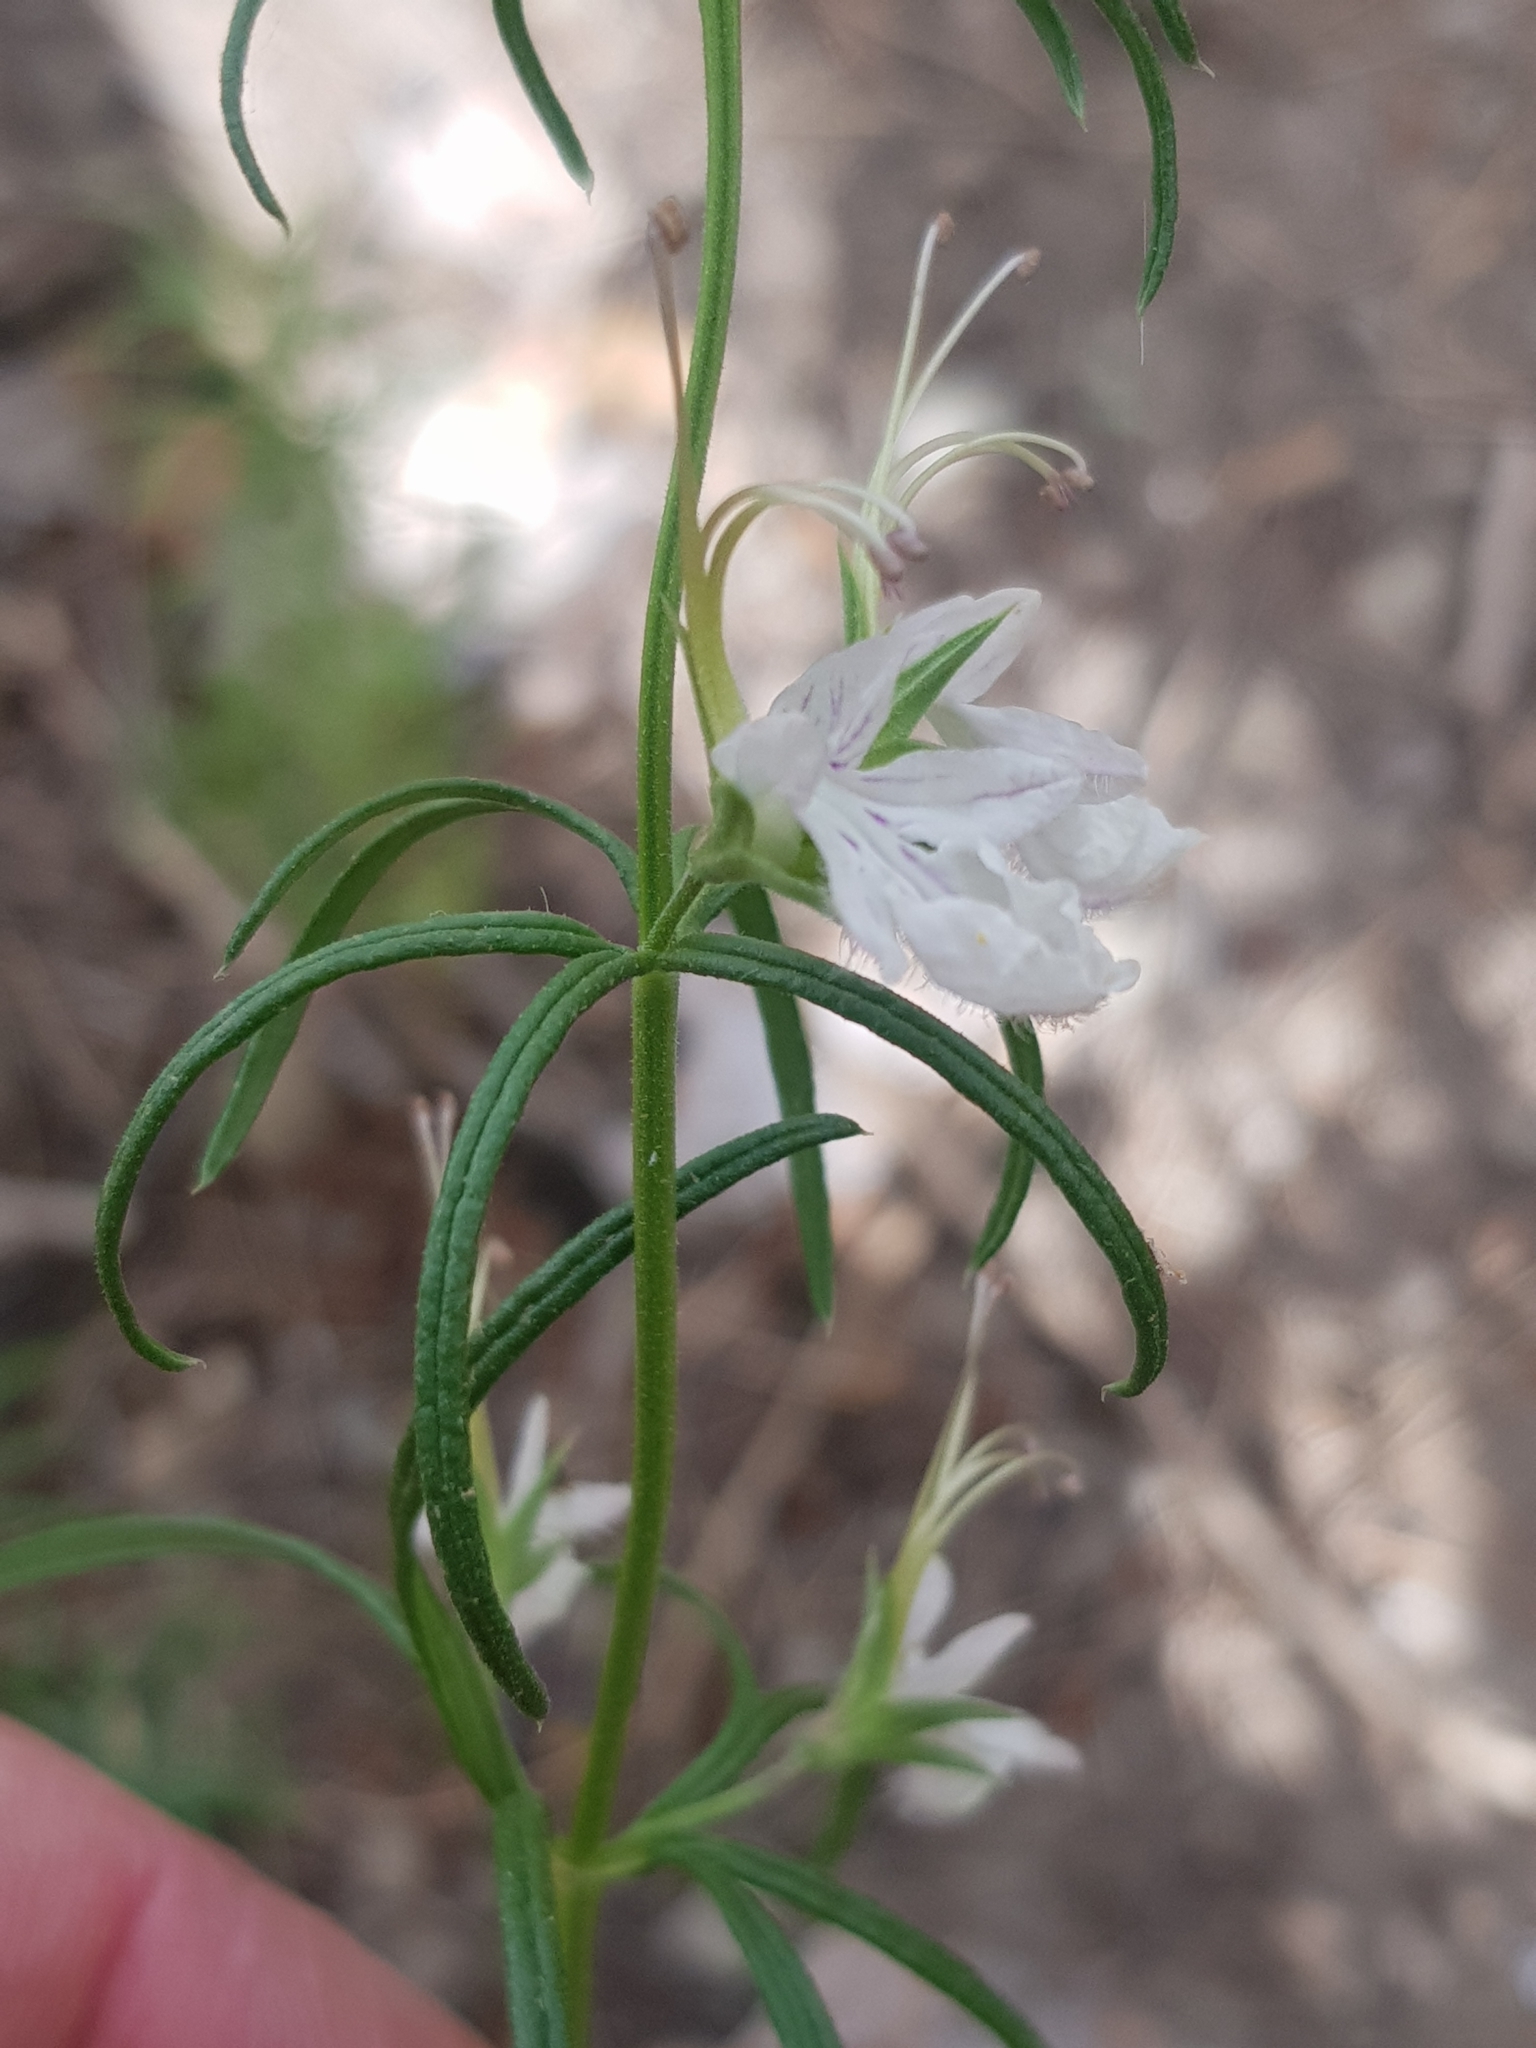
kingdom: Plantae
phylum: Tracheophyta
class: Magnoliopsida
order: Lamiales
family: Lamiaceae
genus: Teucrium
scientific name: Teucrium pseudochamaepitys
